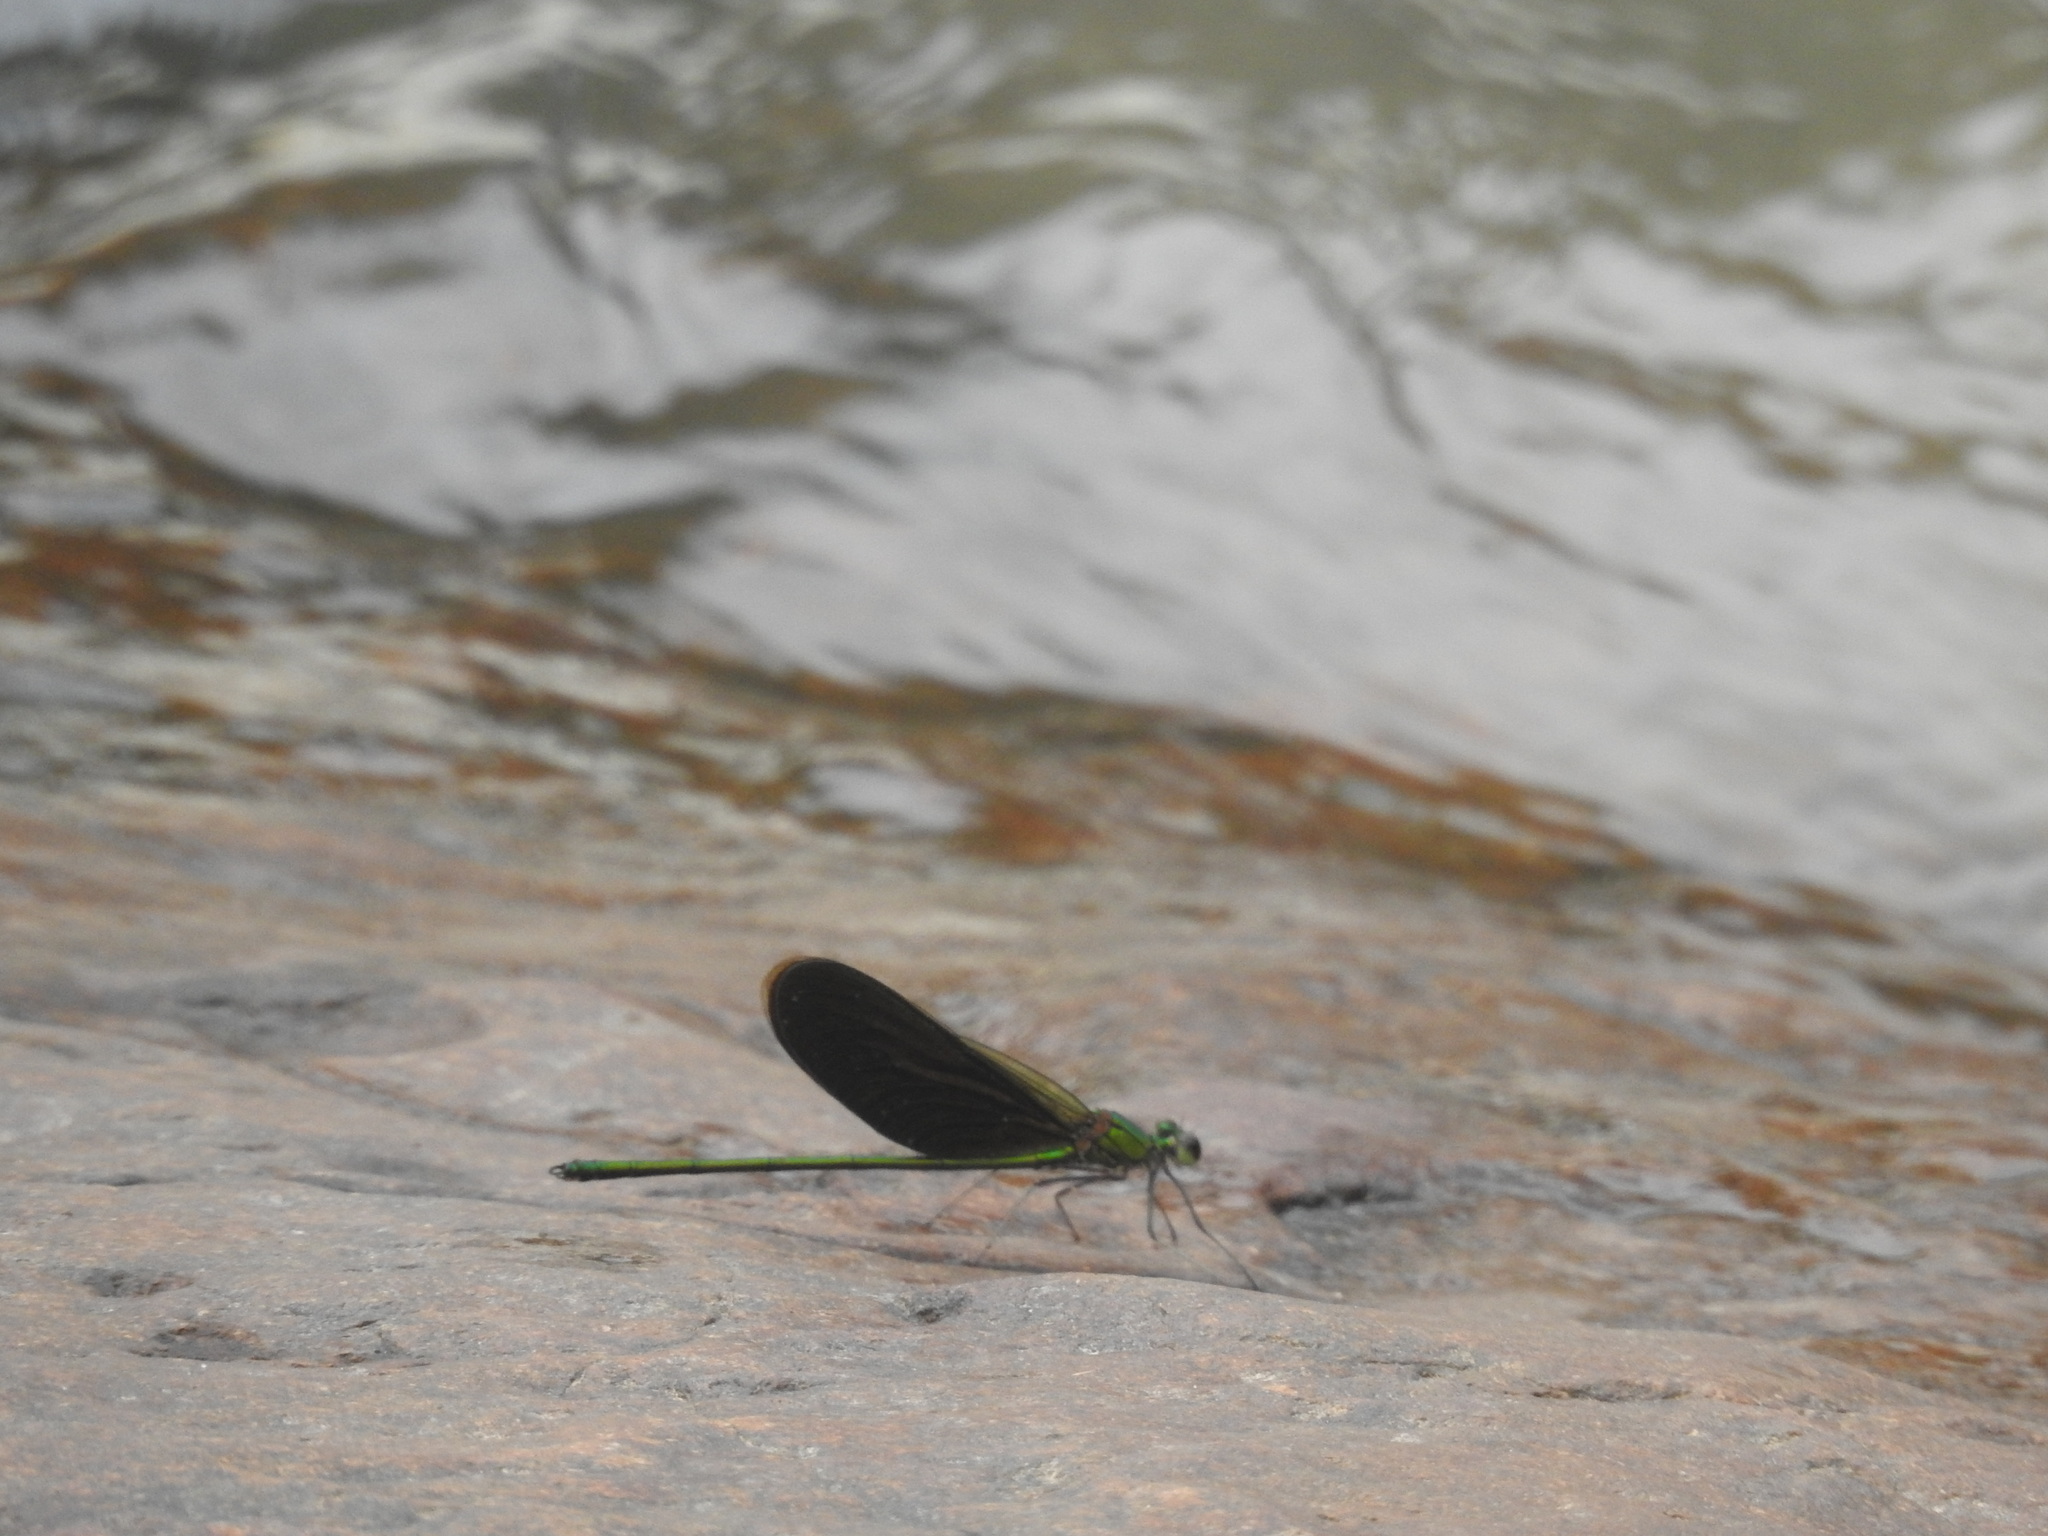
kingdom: Animalia
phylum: Arthropoda
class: Insecta
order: Odonata
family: Calopterygidae
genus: Neurobasis
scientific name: Neurobasis chinensis
